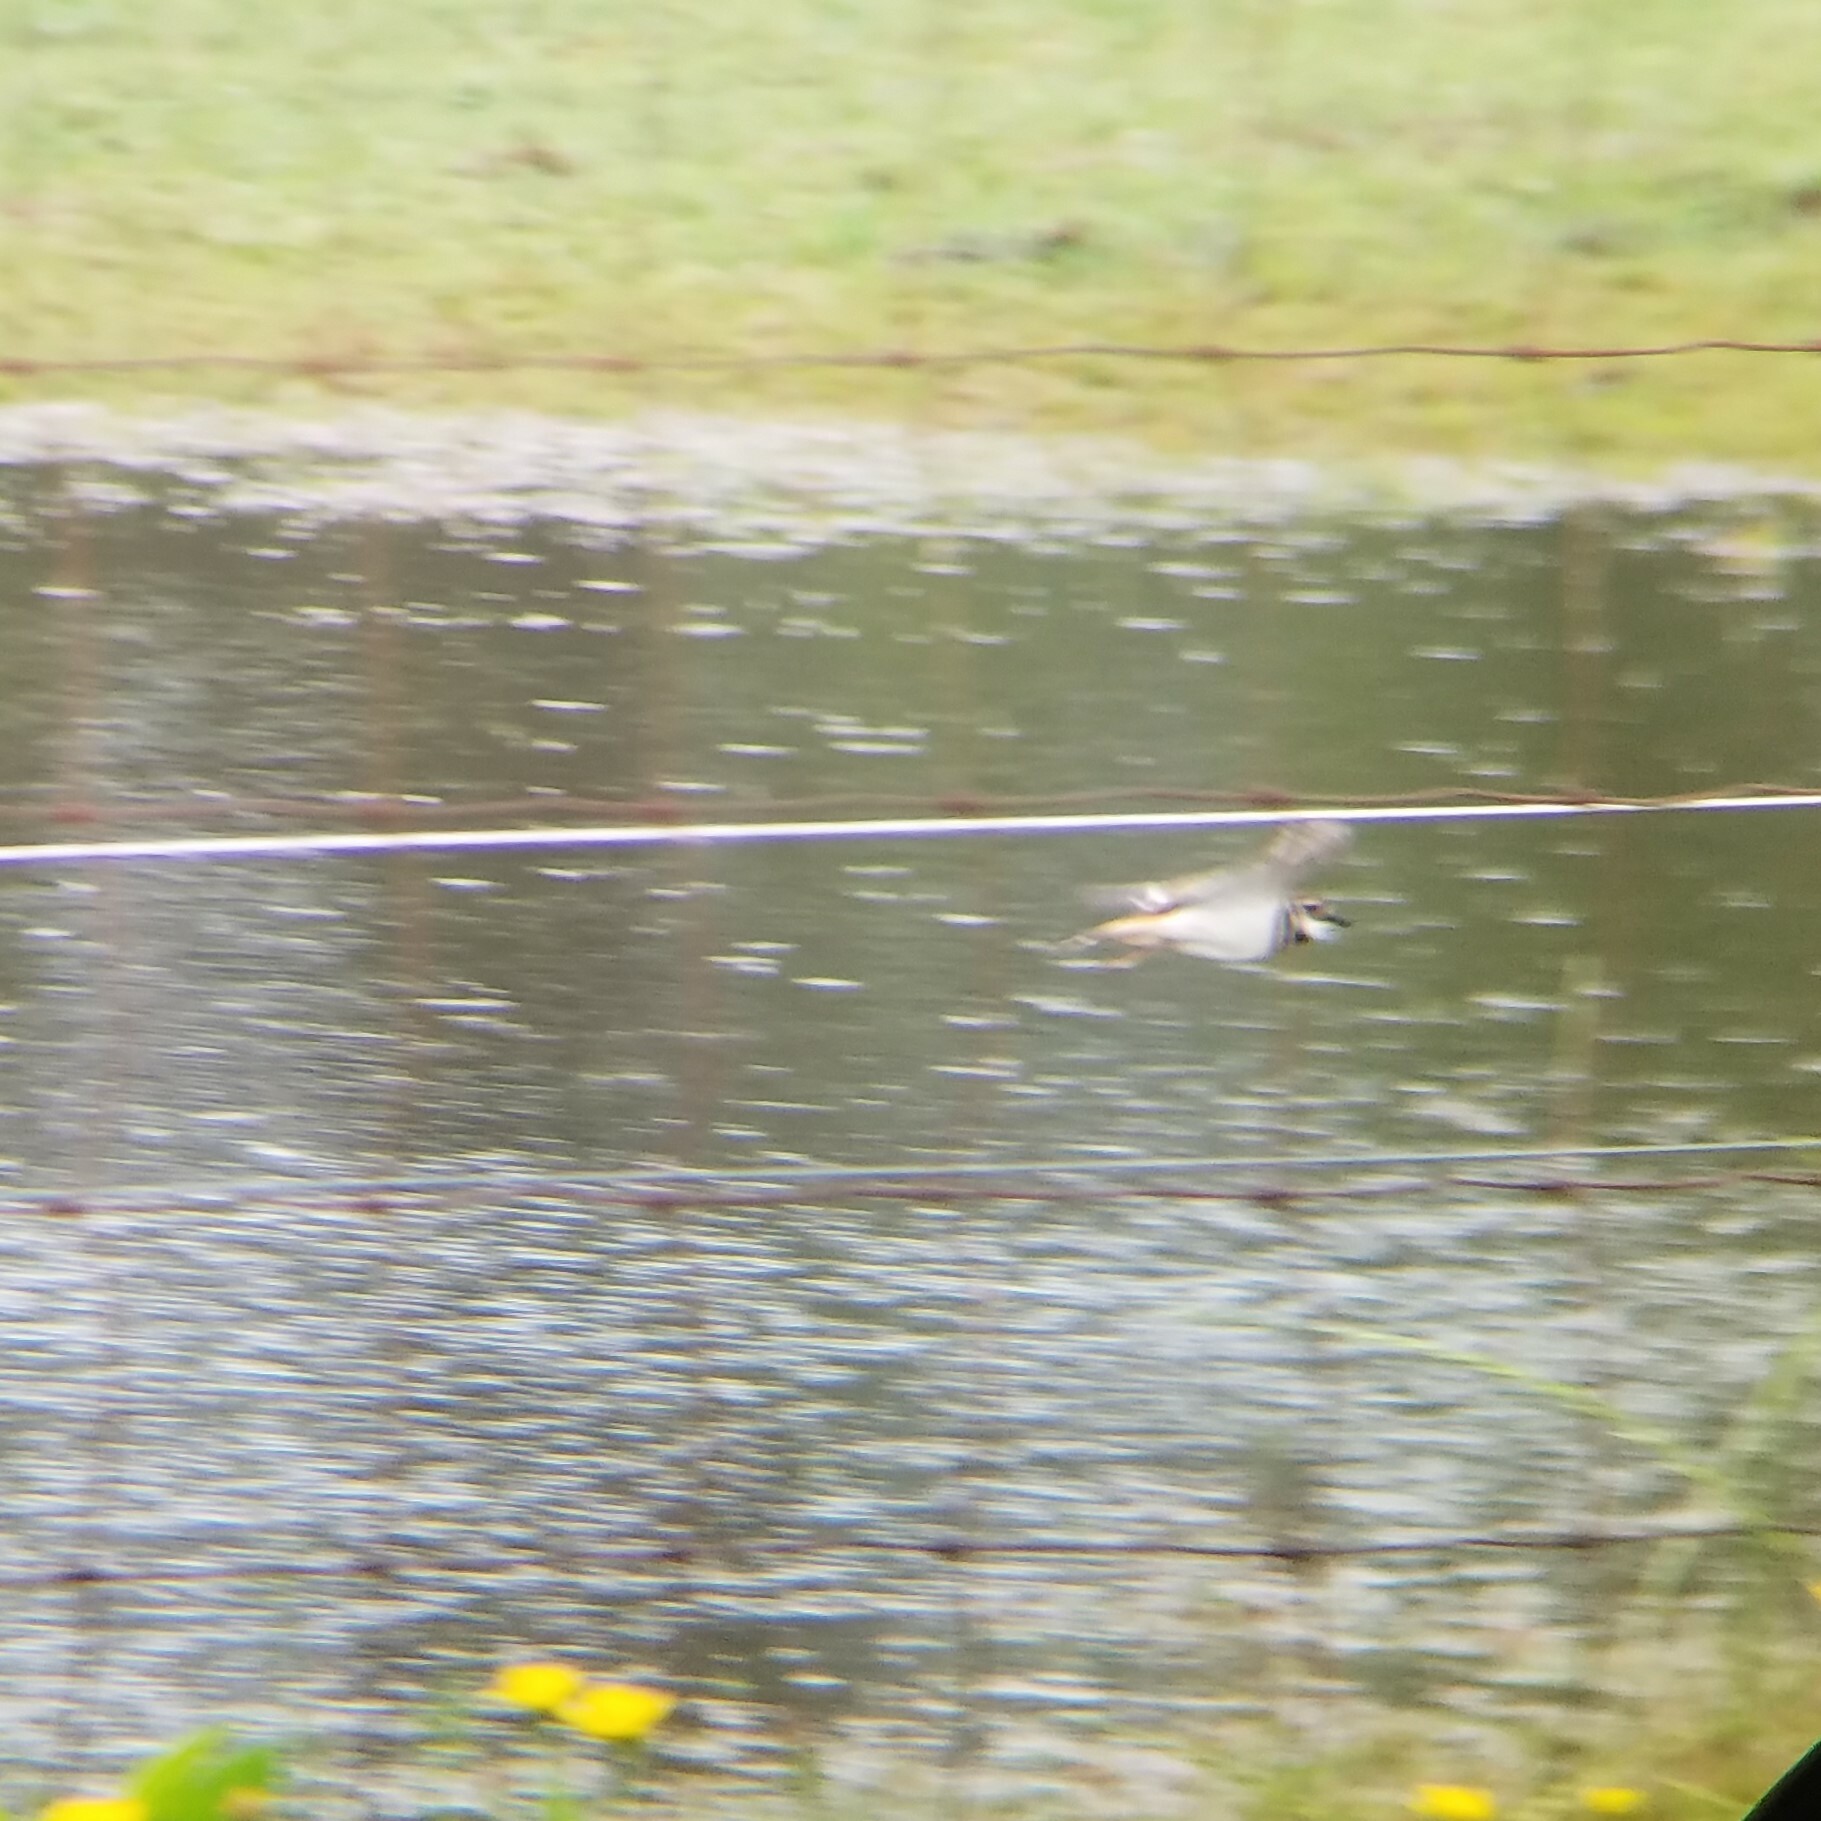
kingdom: Animalia
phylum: Chordata
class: Aves
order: Charadriiformes
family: Charadriidae
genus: Charadrius
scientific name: Charadrius vociferus
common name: Killdeer
